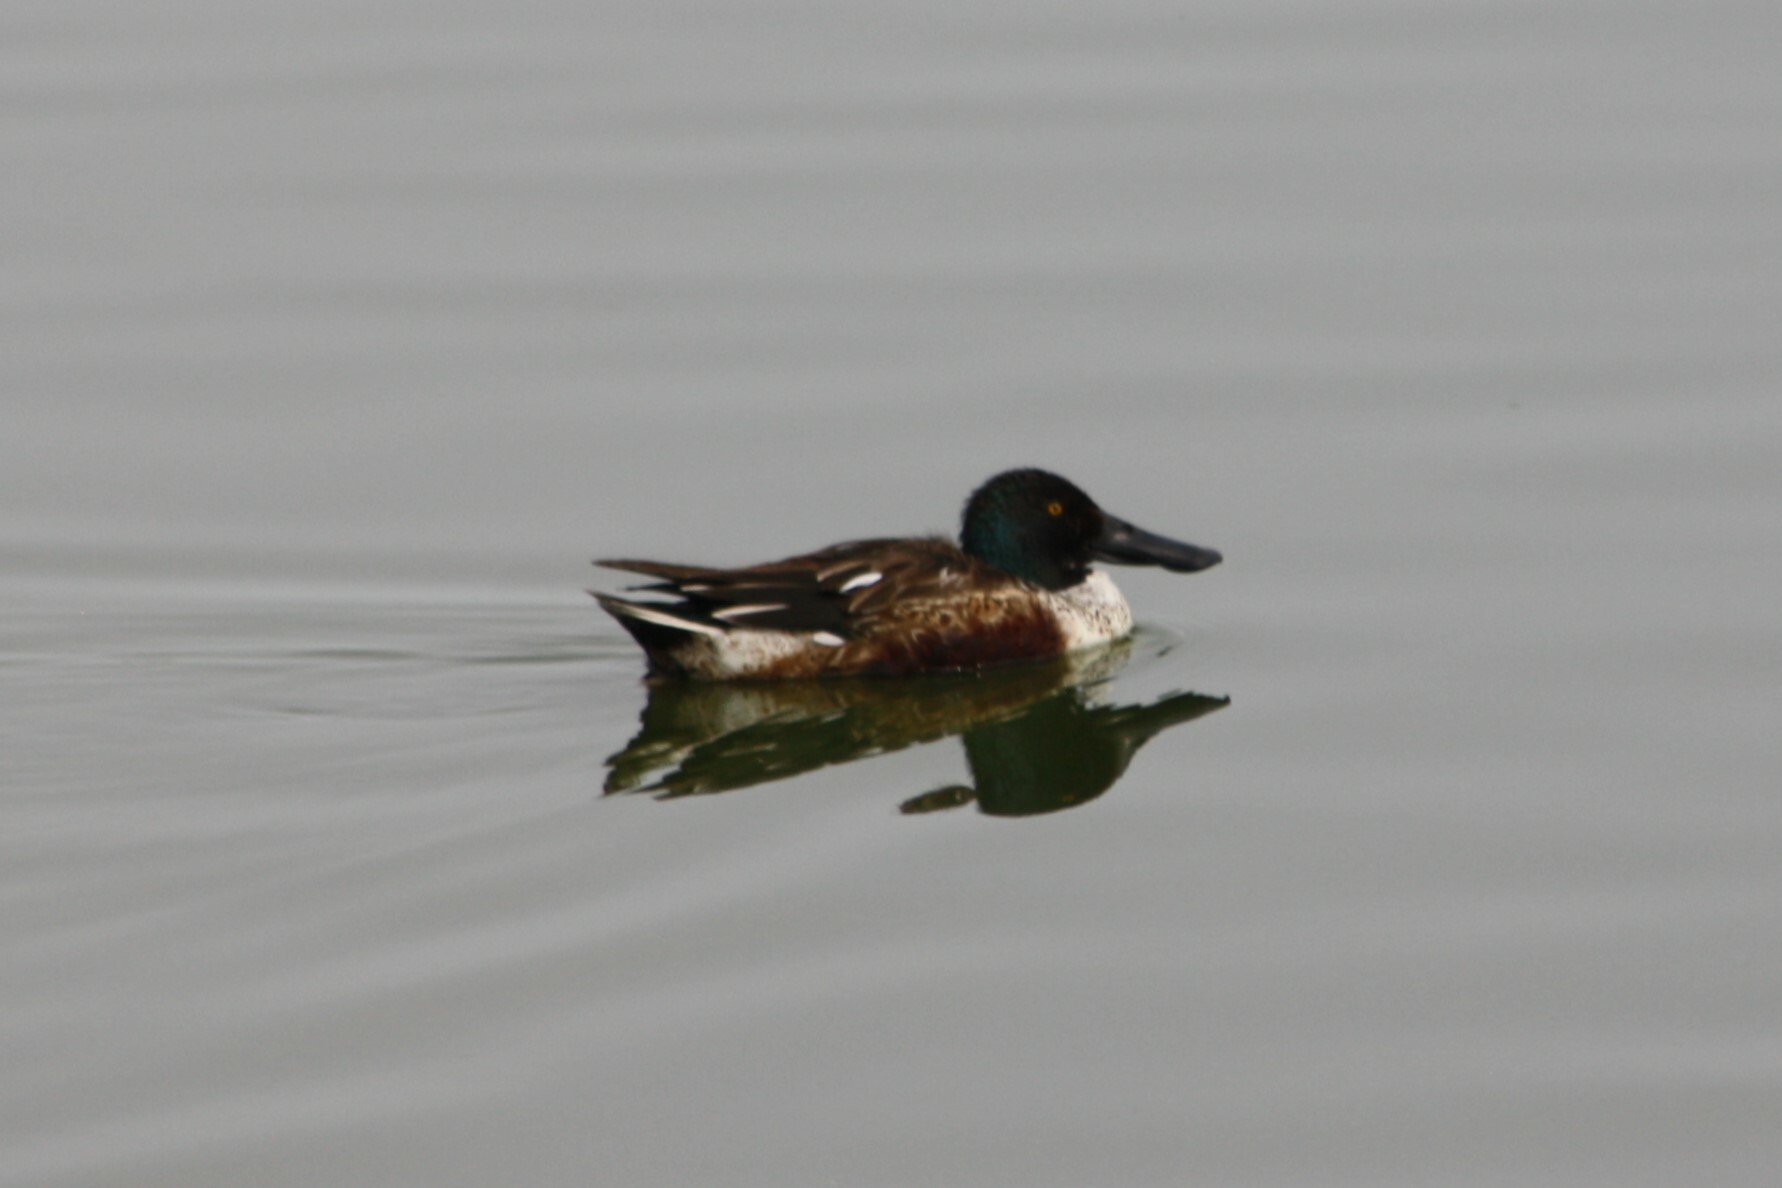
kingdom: Animalia
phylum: Chordata
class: Aves
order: Anseriformes
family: Anatidae
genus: Spatula
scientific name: Spatula clypeata
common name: Northern shoveler
